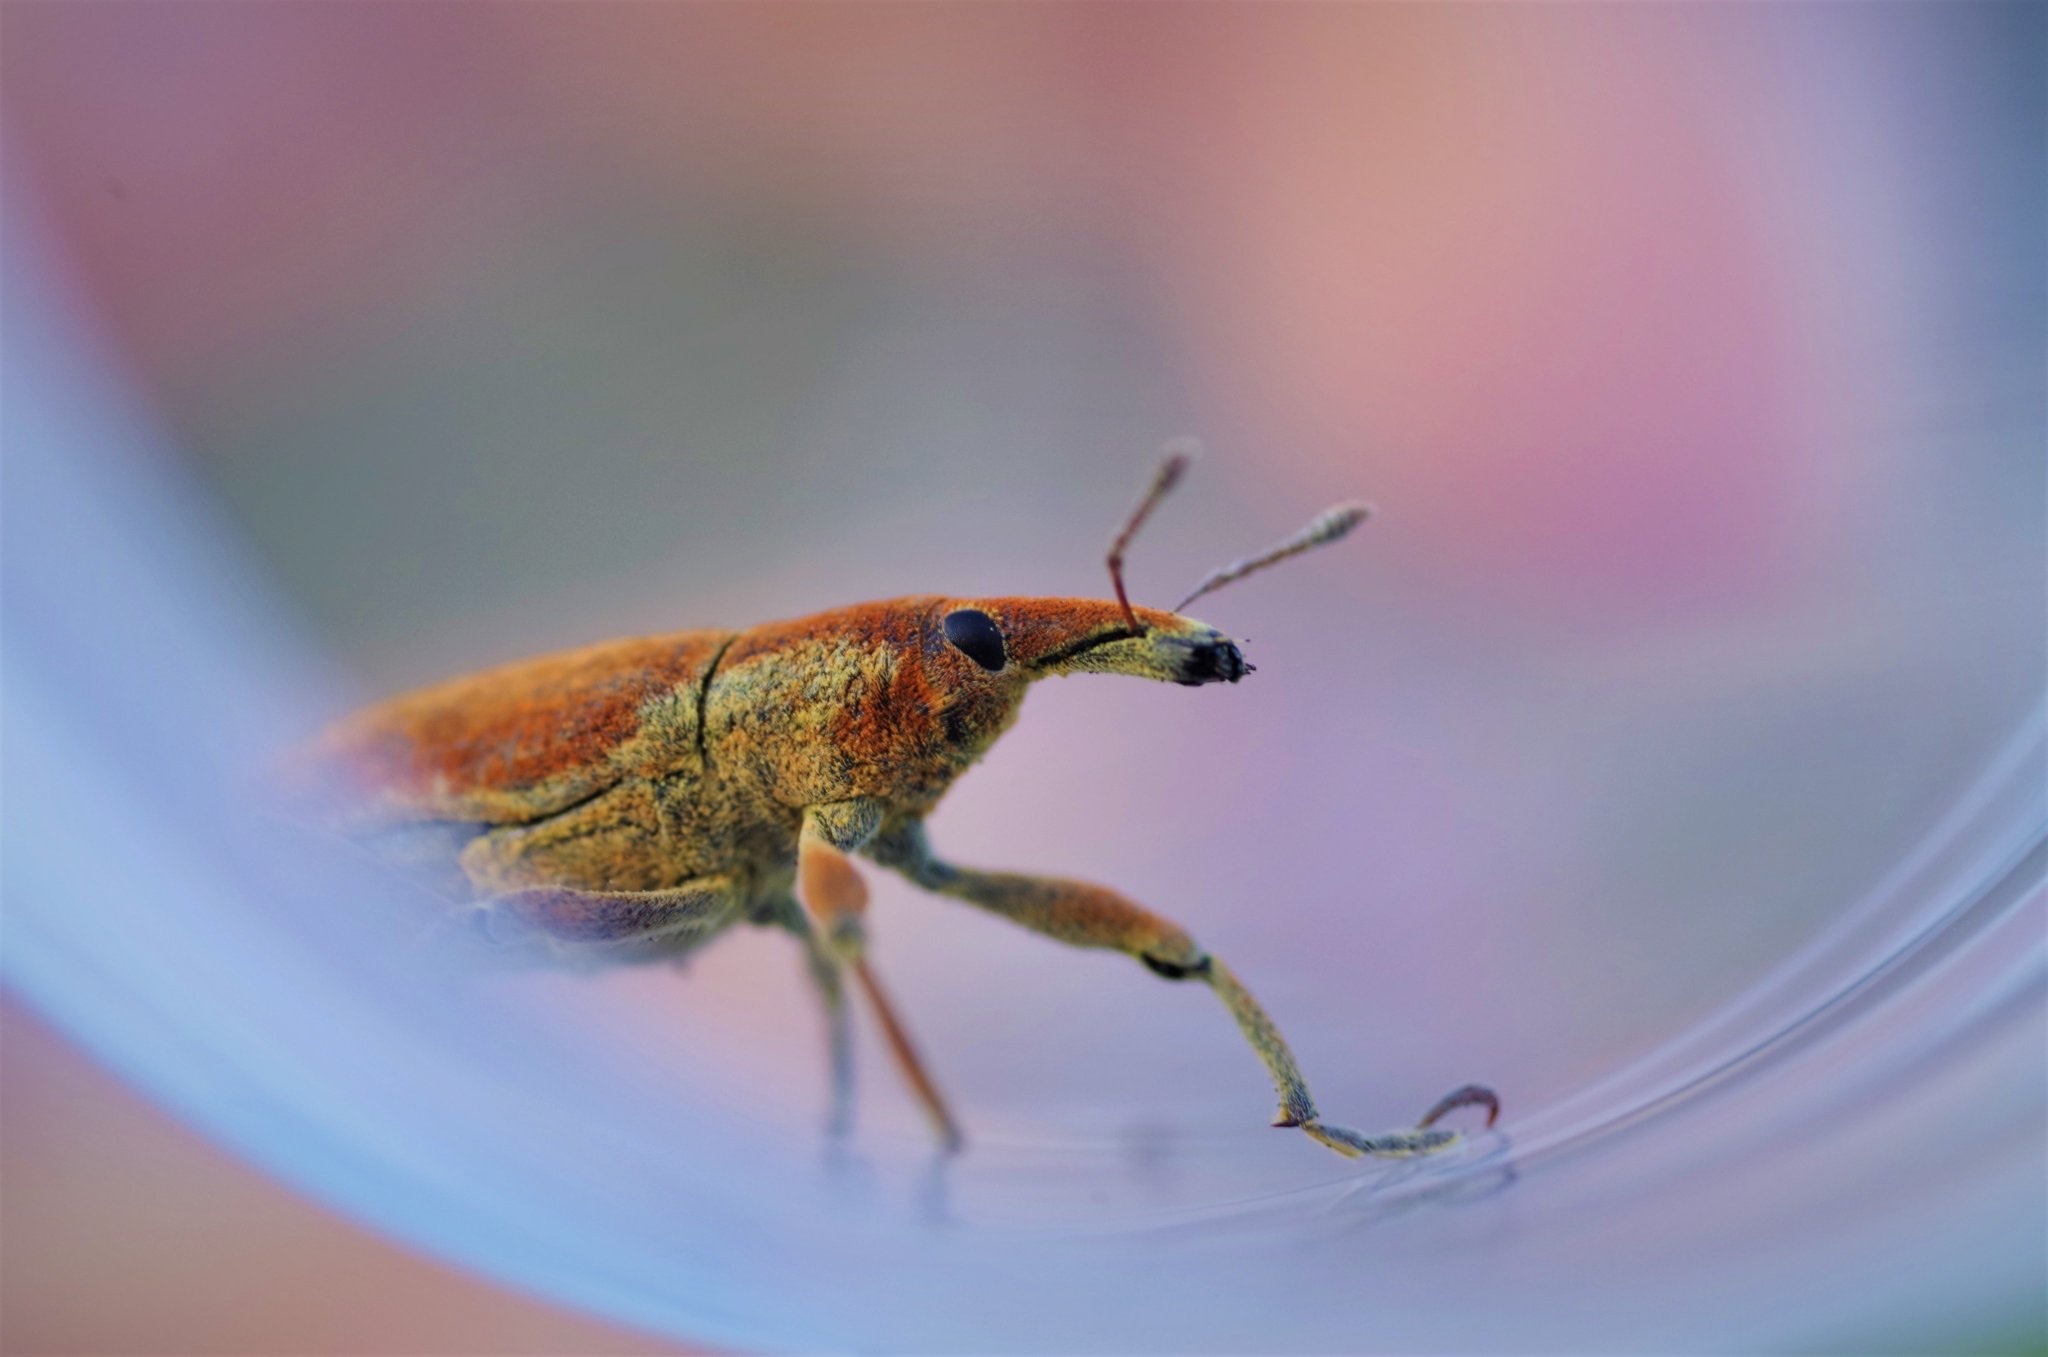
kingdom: Animalia
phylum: Arthropoda
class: Insecta
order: Coleoptera
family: Curculionidae
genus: Lixus
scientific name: Lixus pulverulentus
